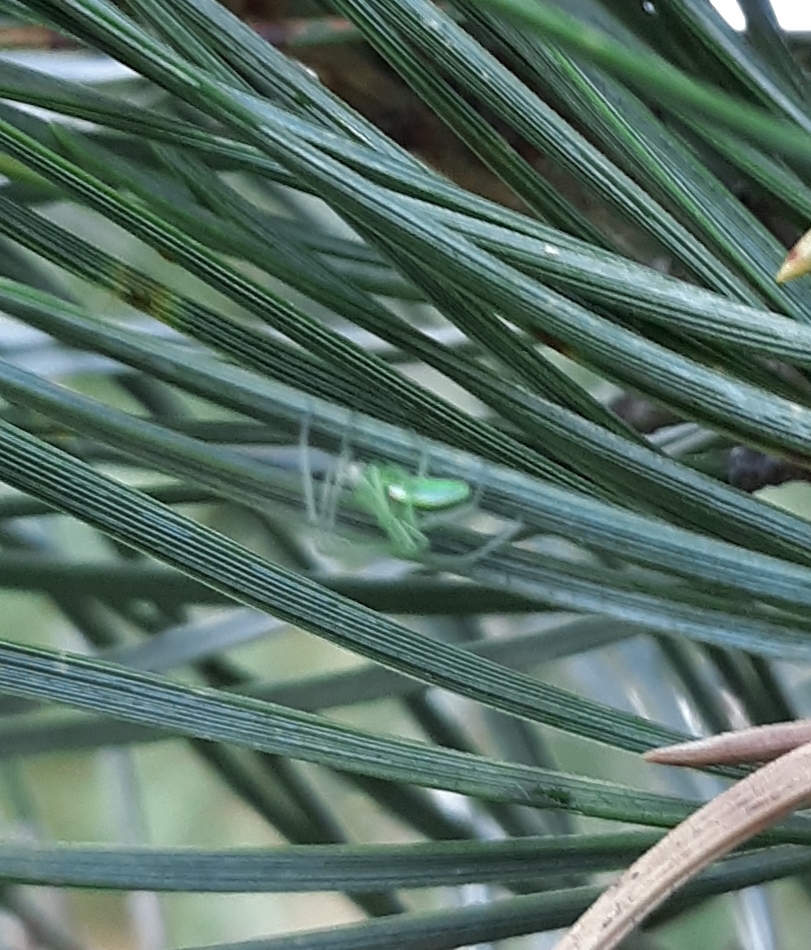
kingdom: Animalia
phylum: Arthropoda
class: Arachnida
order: Araneae
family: Tetragnathidae
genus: Tetragnatha
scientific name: Tetragnatha viridis
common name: Green long-jawed spider
